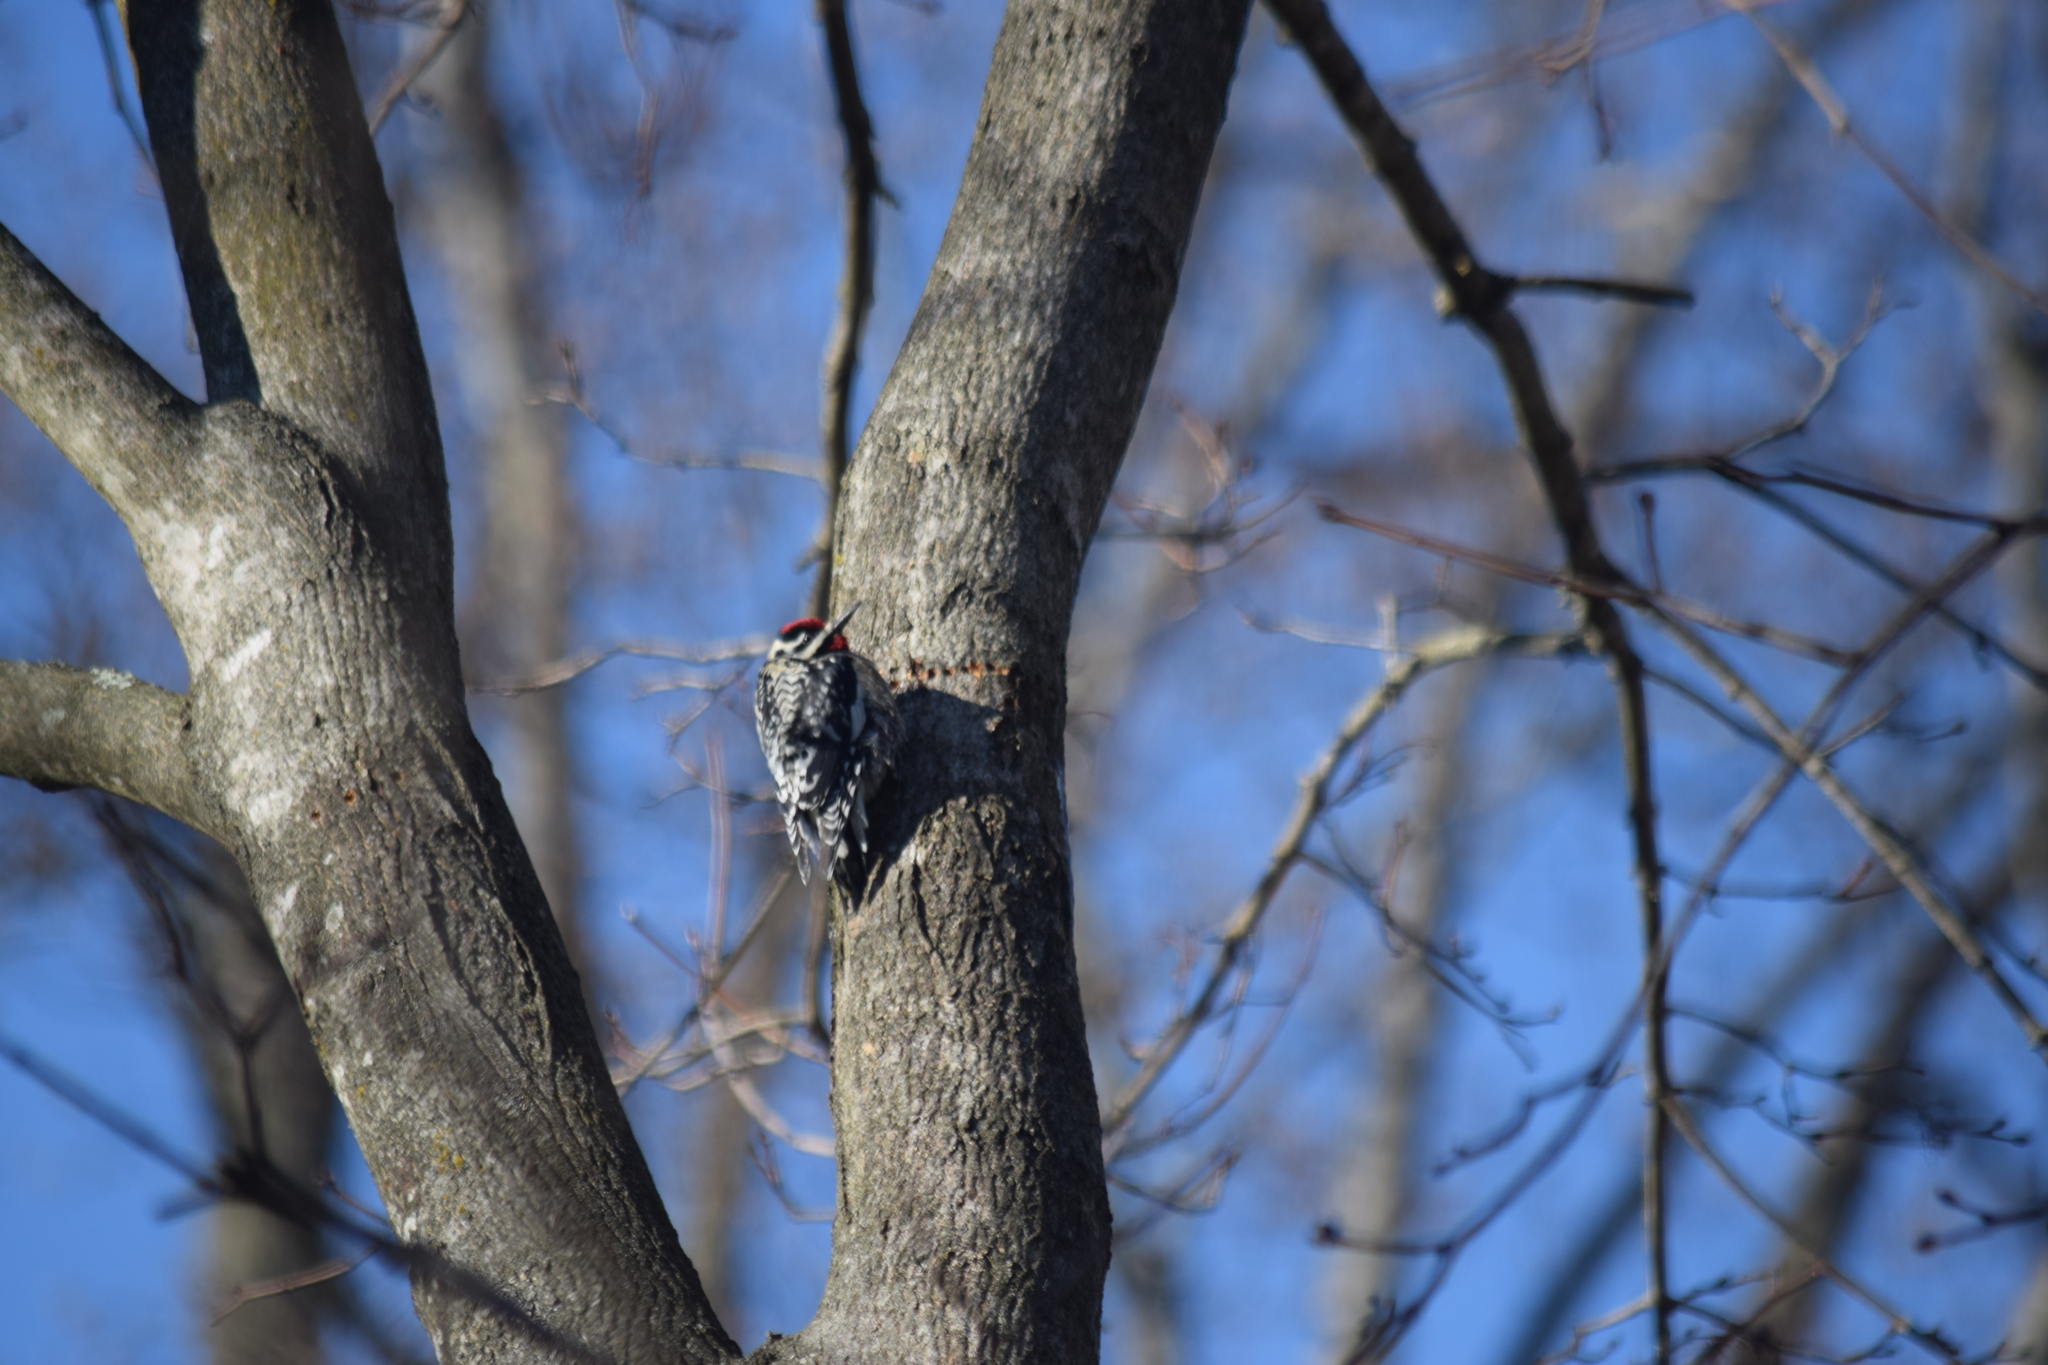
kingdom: Animalia
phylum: Chordata
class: Aves
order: Piciformes
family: Picidae
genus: Sphyrapicus
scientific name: Sphyrapicus varius
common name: Yellow-bellied sapsucker
